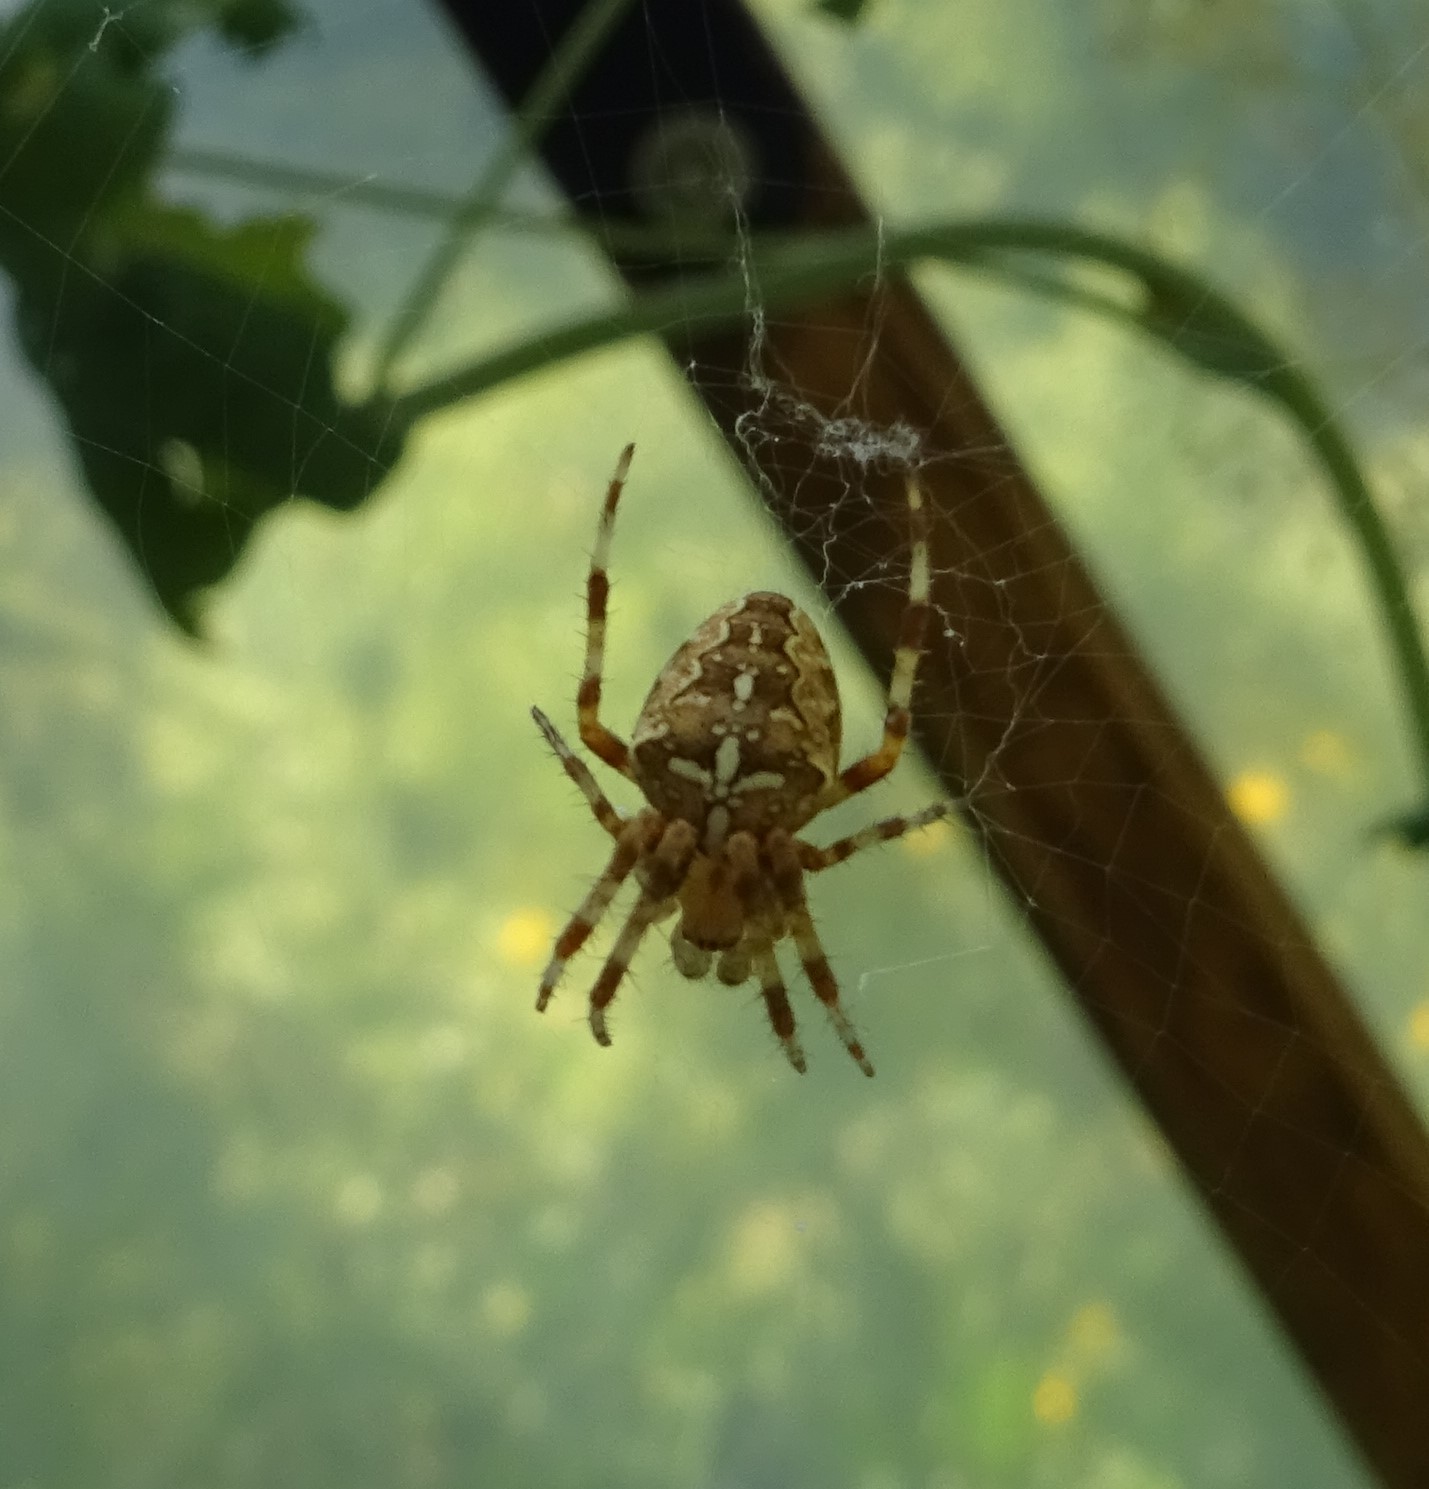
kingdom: Animalia
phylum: Arthropoda
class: Arachnida
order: Araneae
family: Araneidae
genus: Araneus
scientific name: Araneus diadematus
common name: Cross orbweaver
